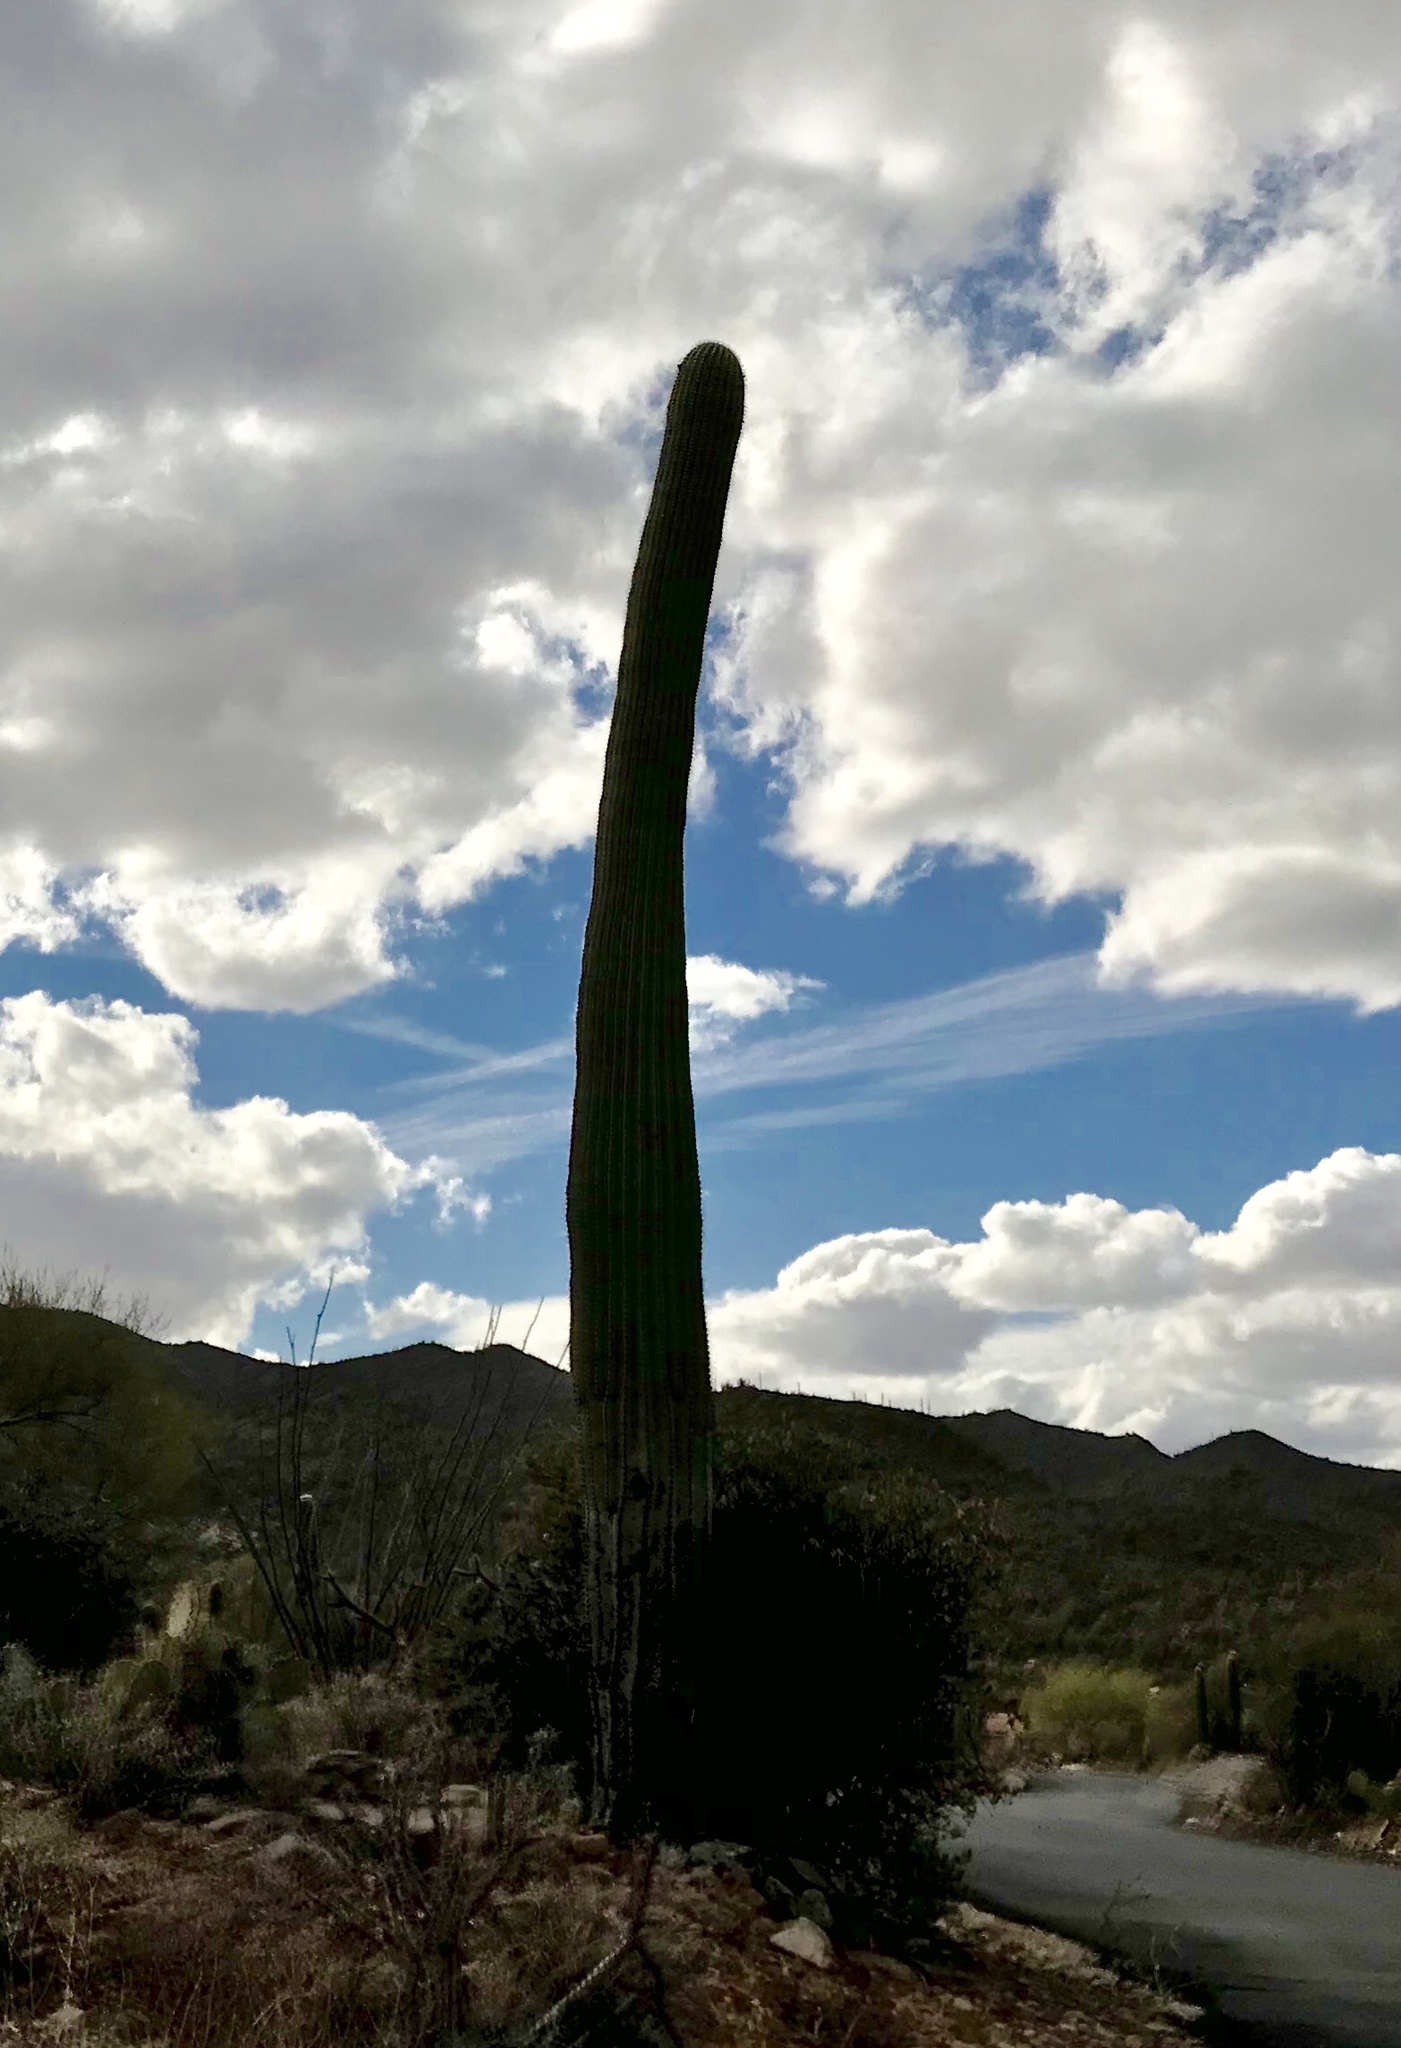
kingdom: Plantae
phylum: Tracheophyta
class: Magnoliopsida
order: Caryophyllales
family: Cactaceae
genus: Carnegiea
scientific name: Carnegiea gigantea
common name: Saguaro
